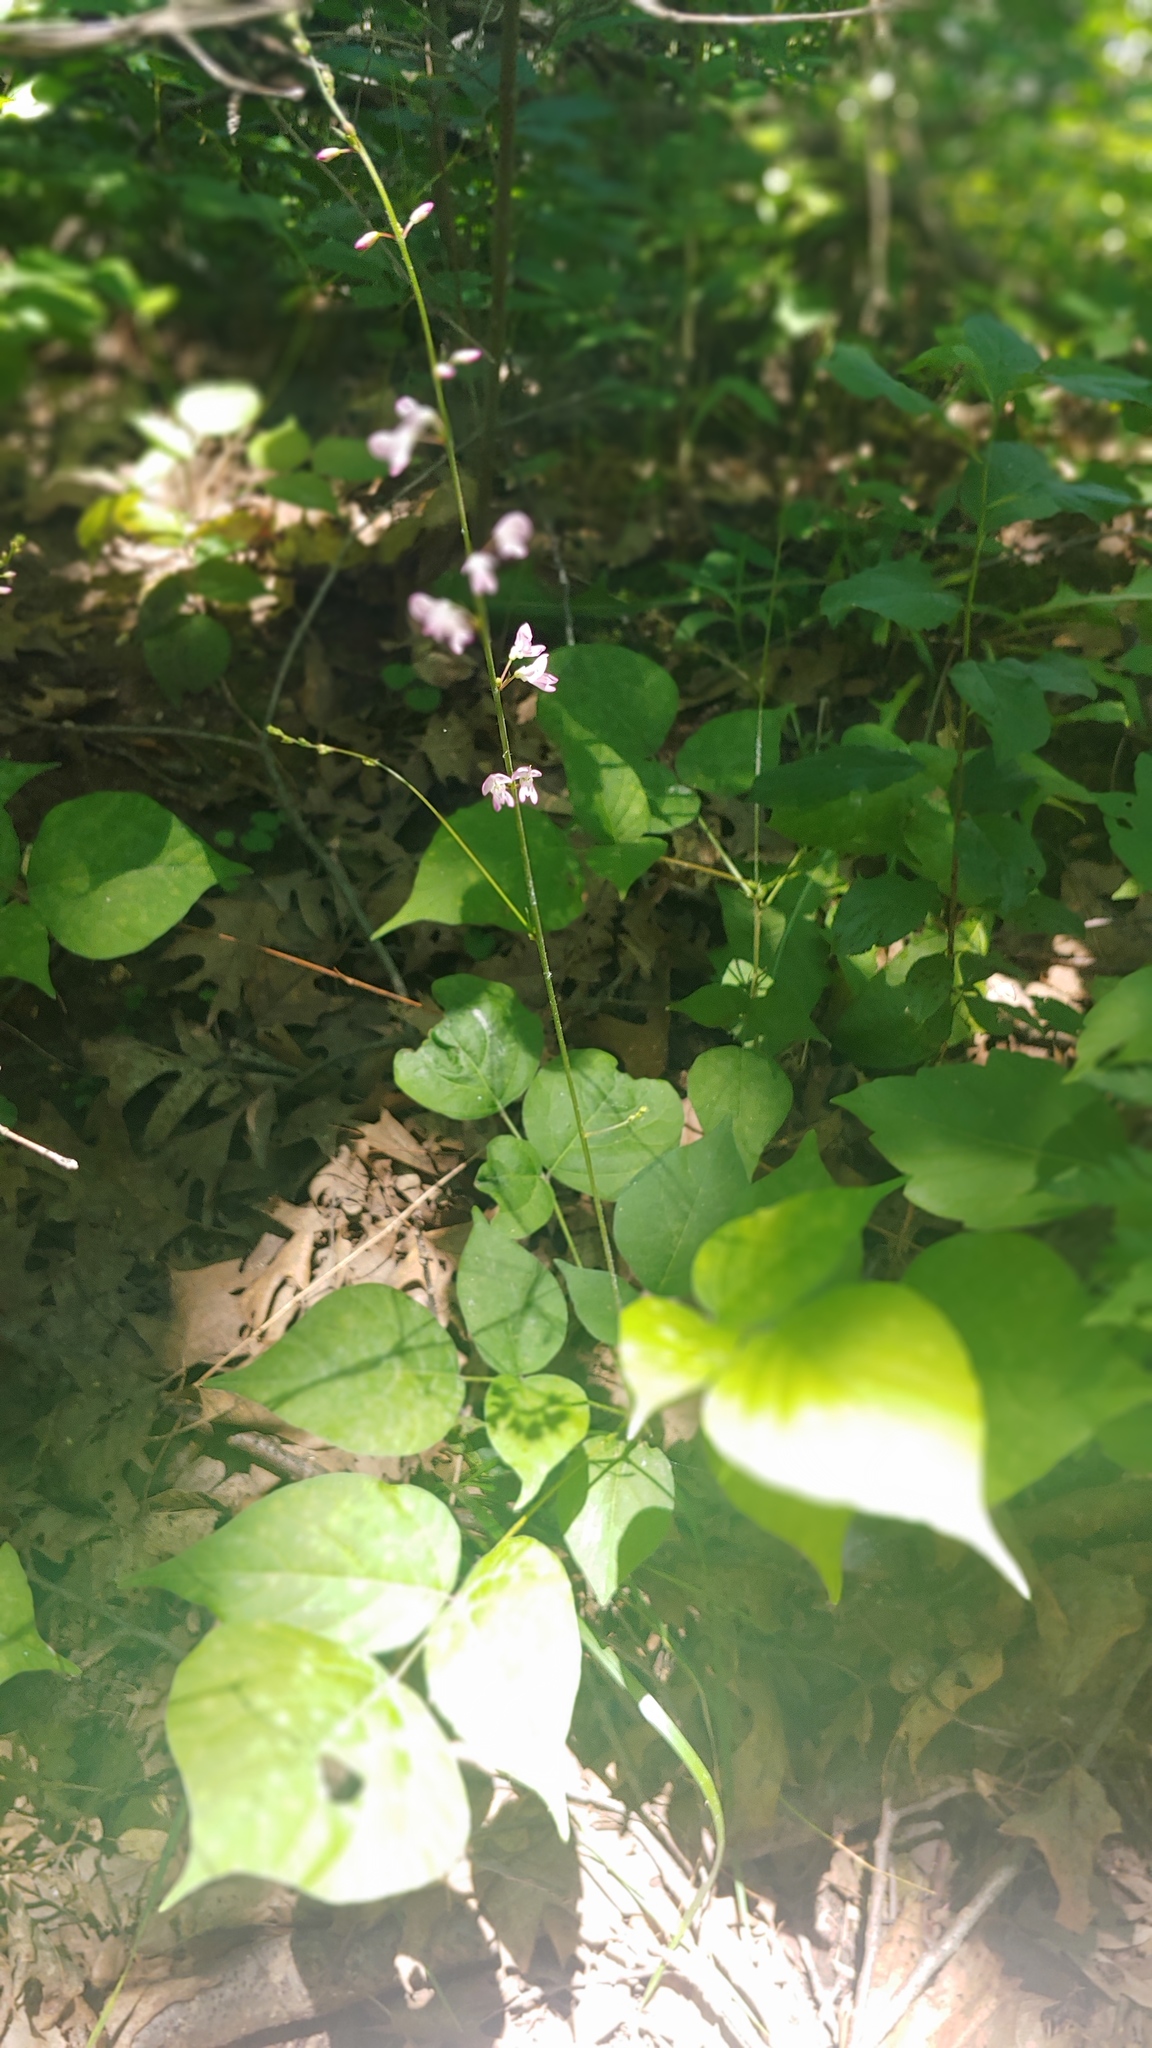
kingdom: Plantae
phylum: Tracheophyta
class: Magnoliopsida
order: Fabales
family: Fabaceae
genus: Hylodesmum
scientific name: Hylodesmum glutinosum
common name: Clustered-leaved tick-trefoil
